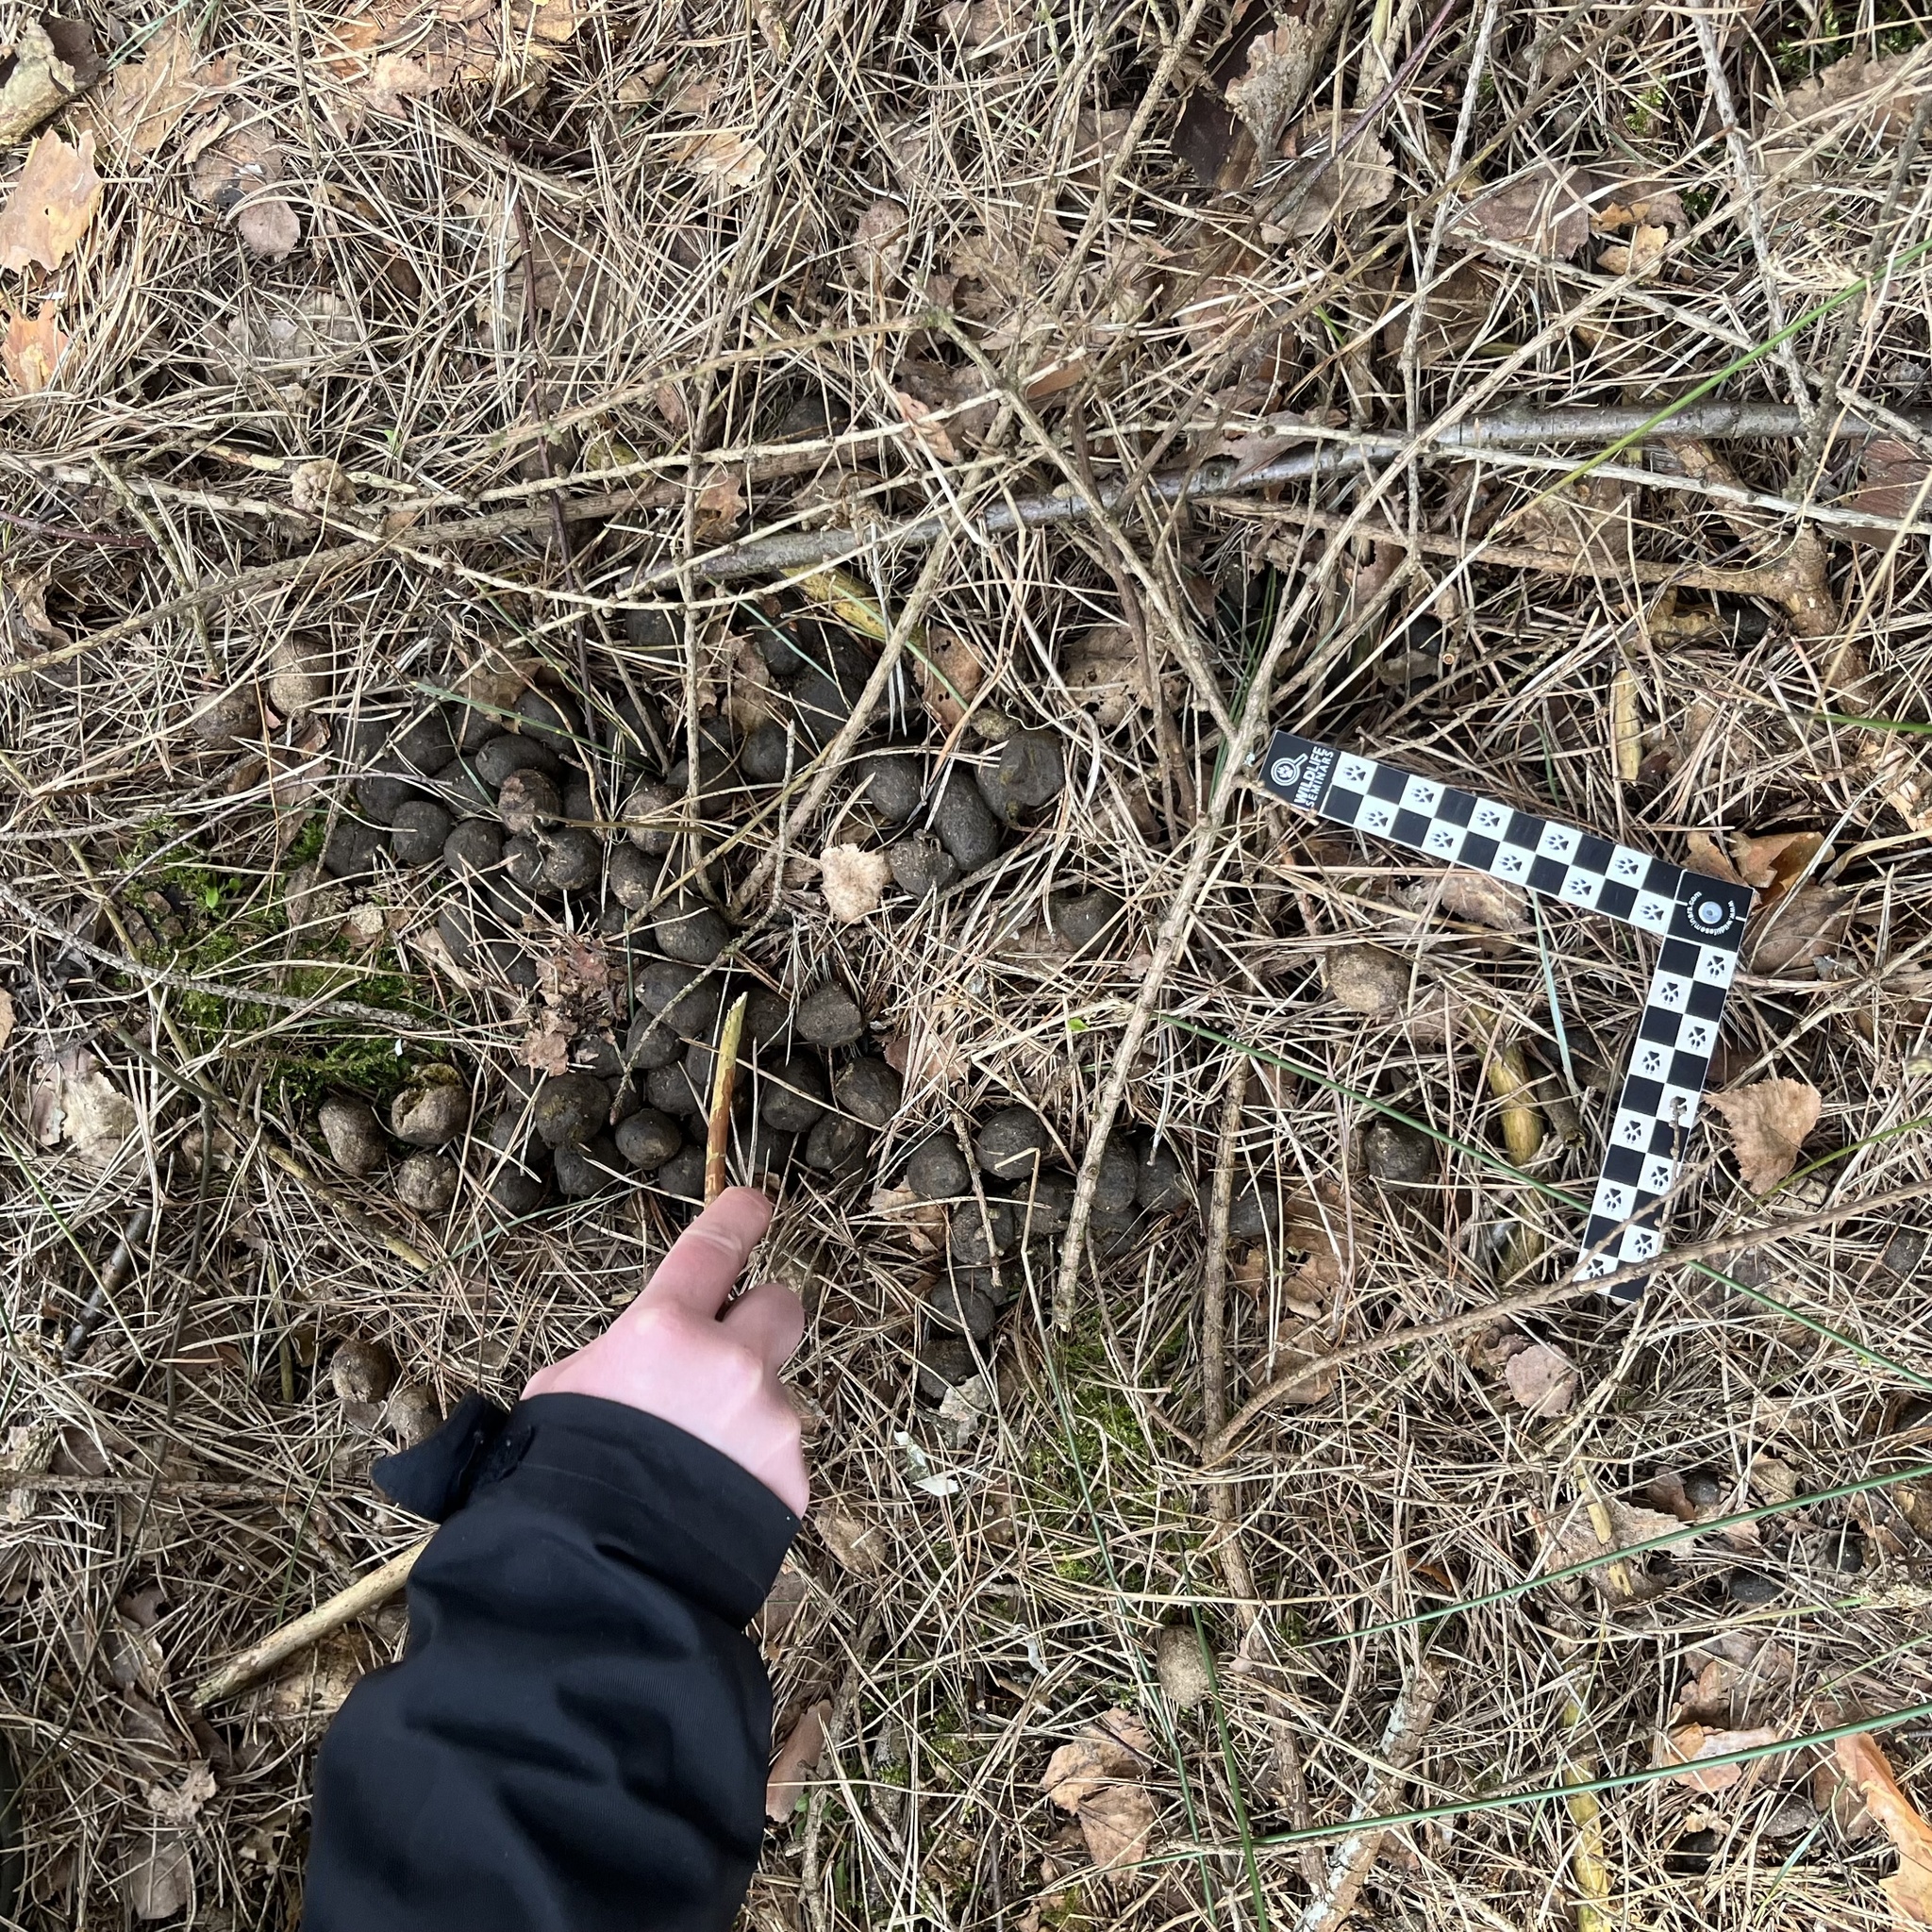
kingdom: Animalia
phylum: Chordata
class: Mammalia
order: Artiodactyla
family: Cervidae
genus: Alces
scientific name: Alces alces
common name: Moose
